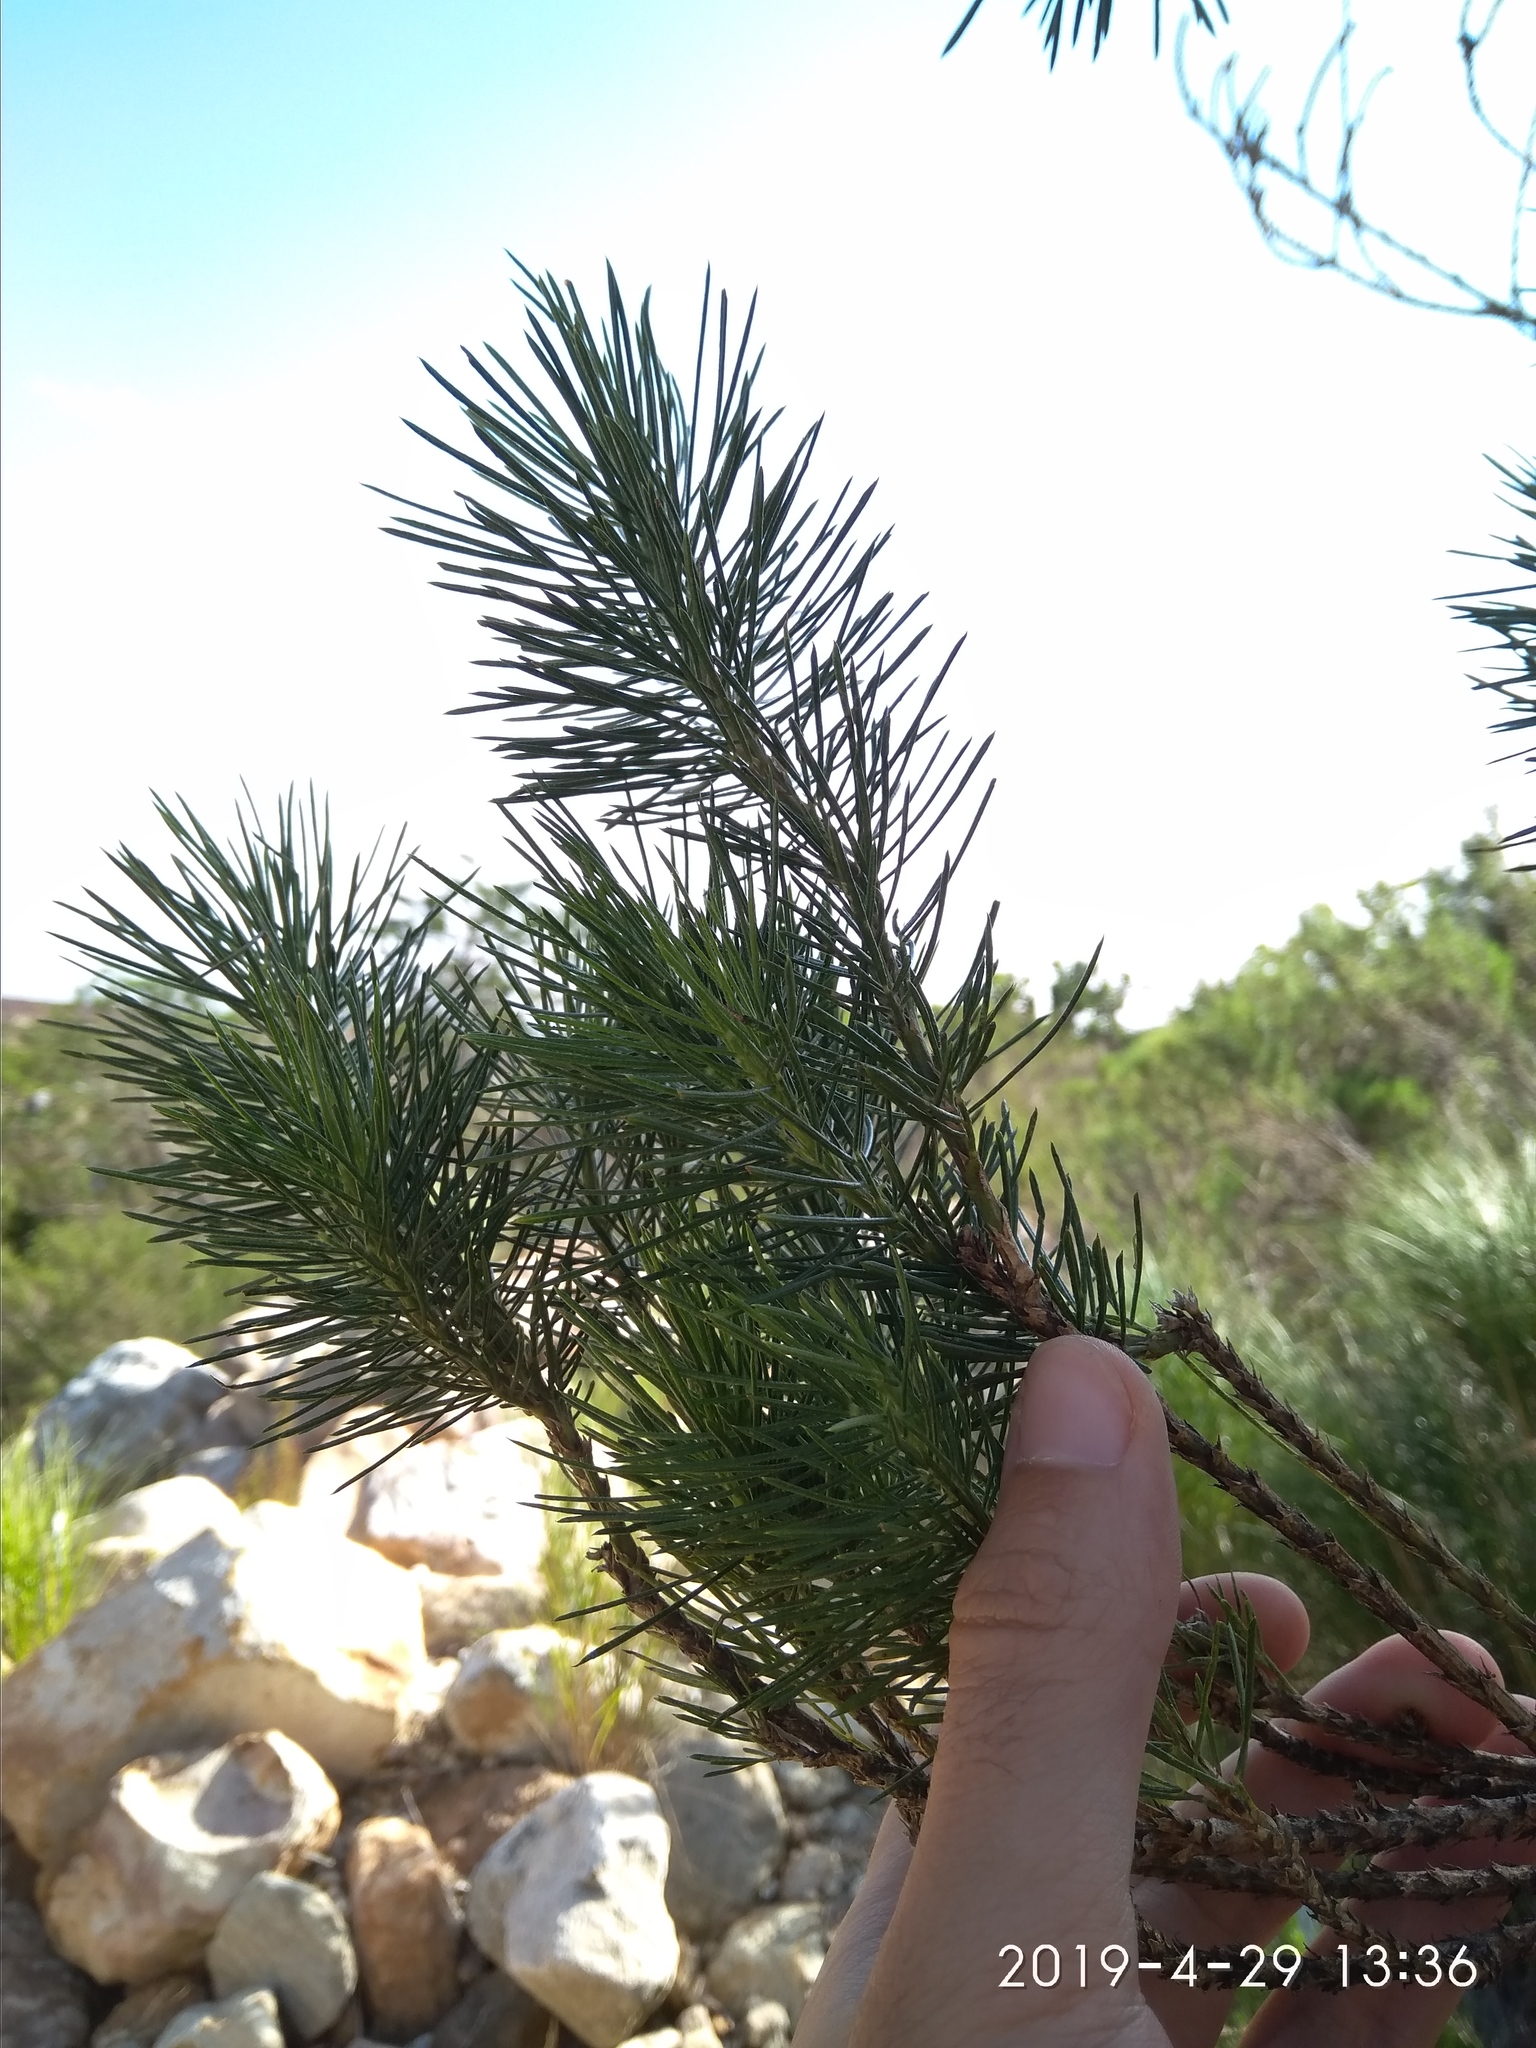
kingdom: Plantae
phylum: Tracheophyta
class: Magnoliopsida
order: Fabales
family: Fabaceae
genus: Psoralea
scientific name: Psoralea pinnata
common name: African scurfpea
